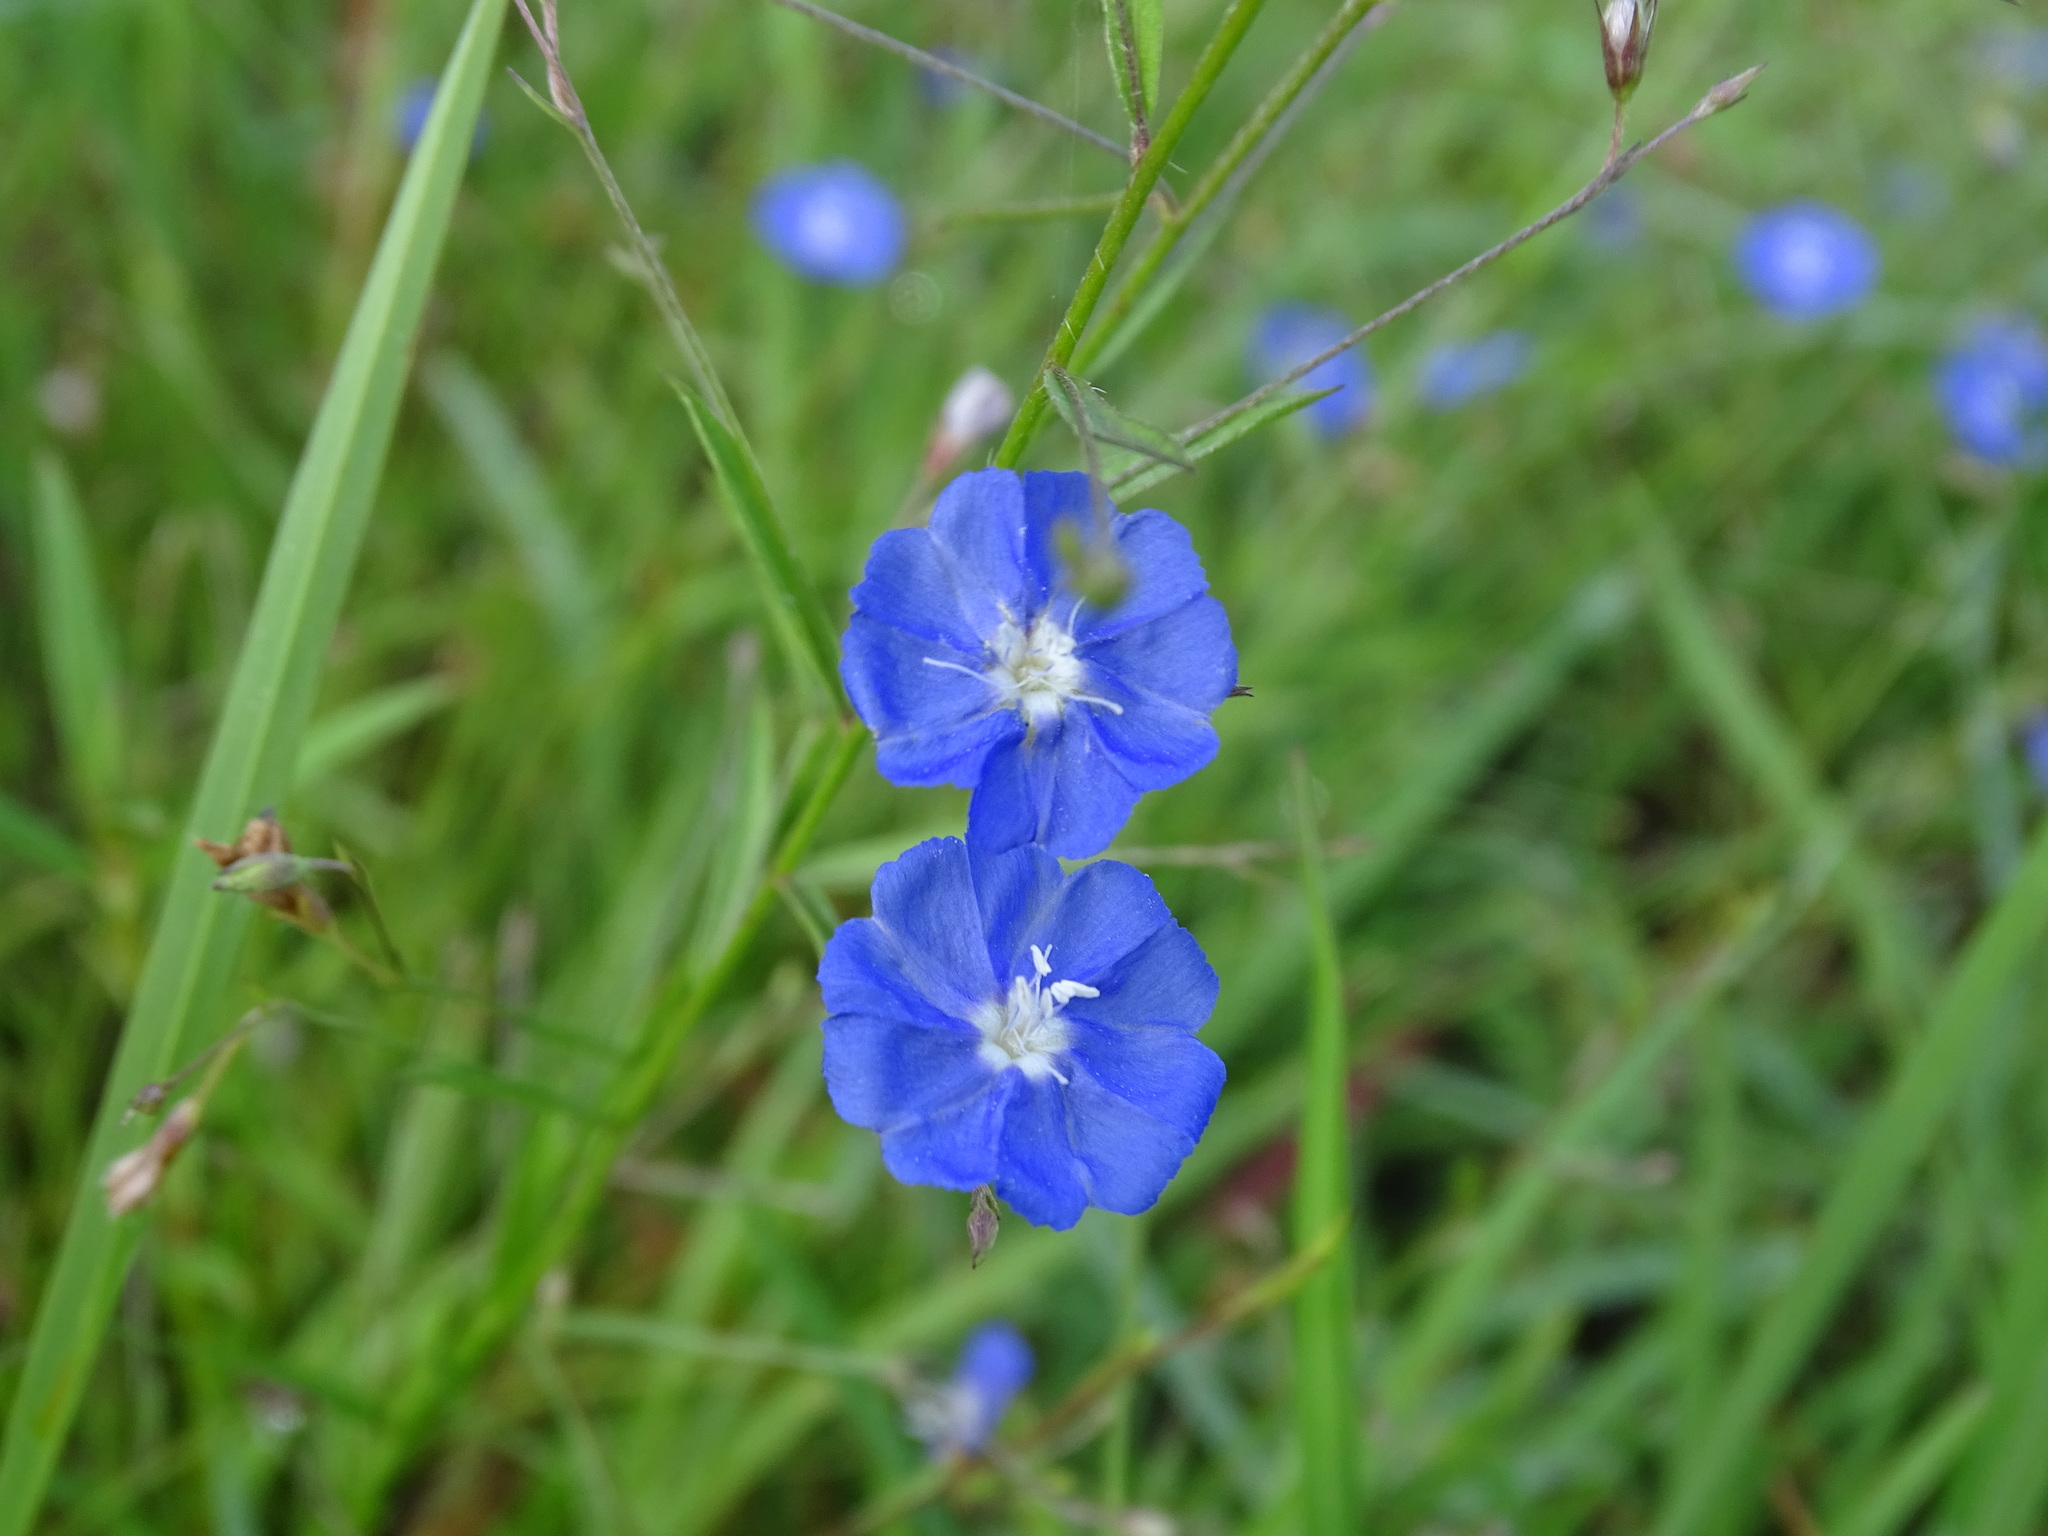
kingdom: Plantae
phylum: Tracheophyta
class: Magnoliopsida
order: Solanales
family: Convolvulaceae
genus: Evolvulus
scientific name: Evolvulus alsinoides
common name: Slender dwarf morning-glory
